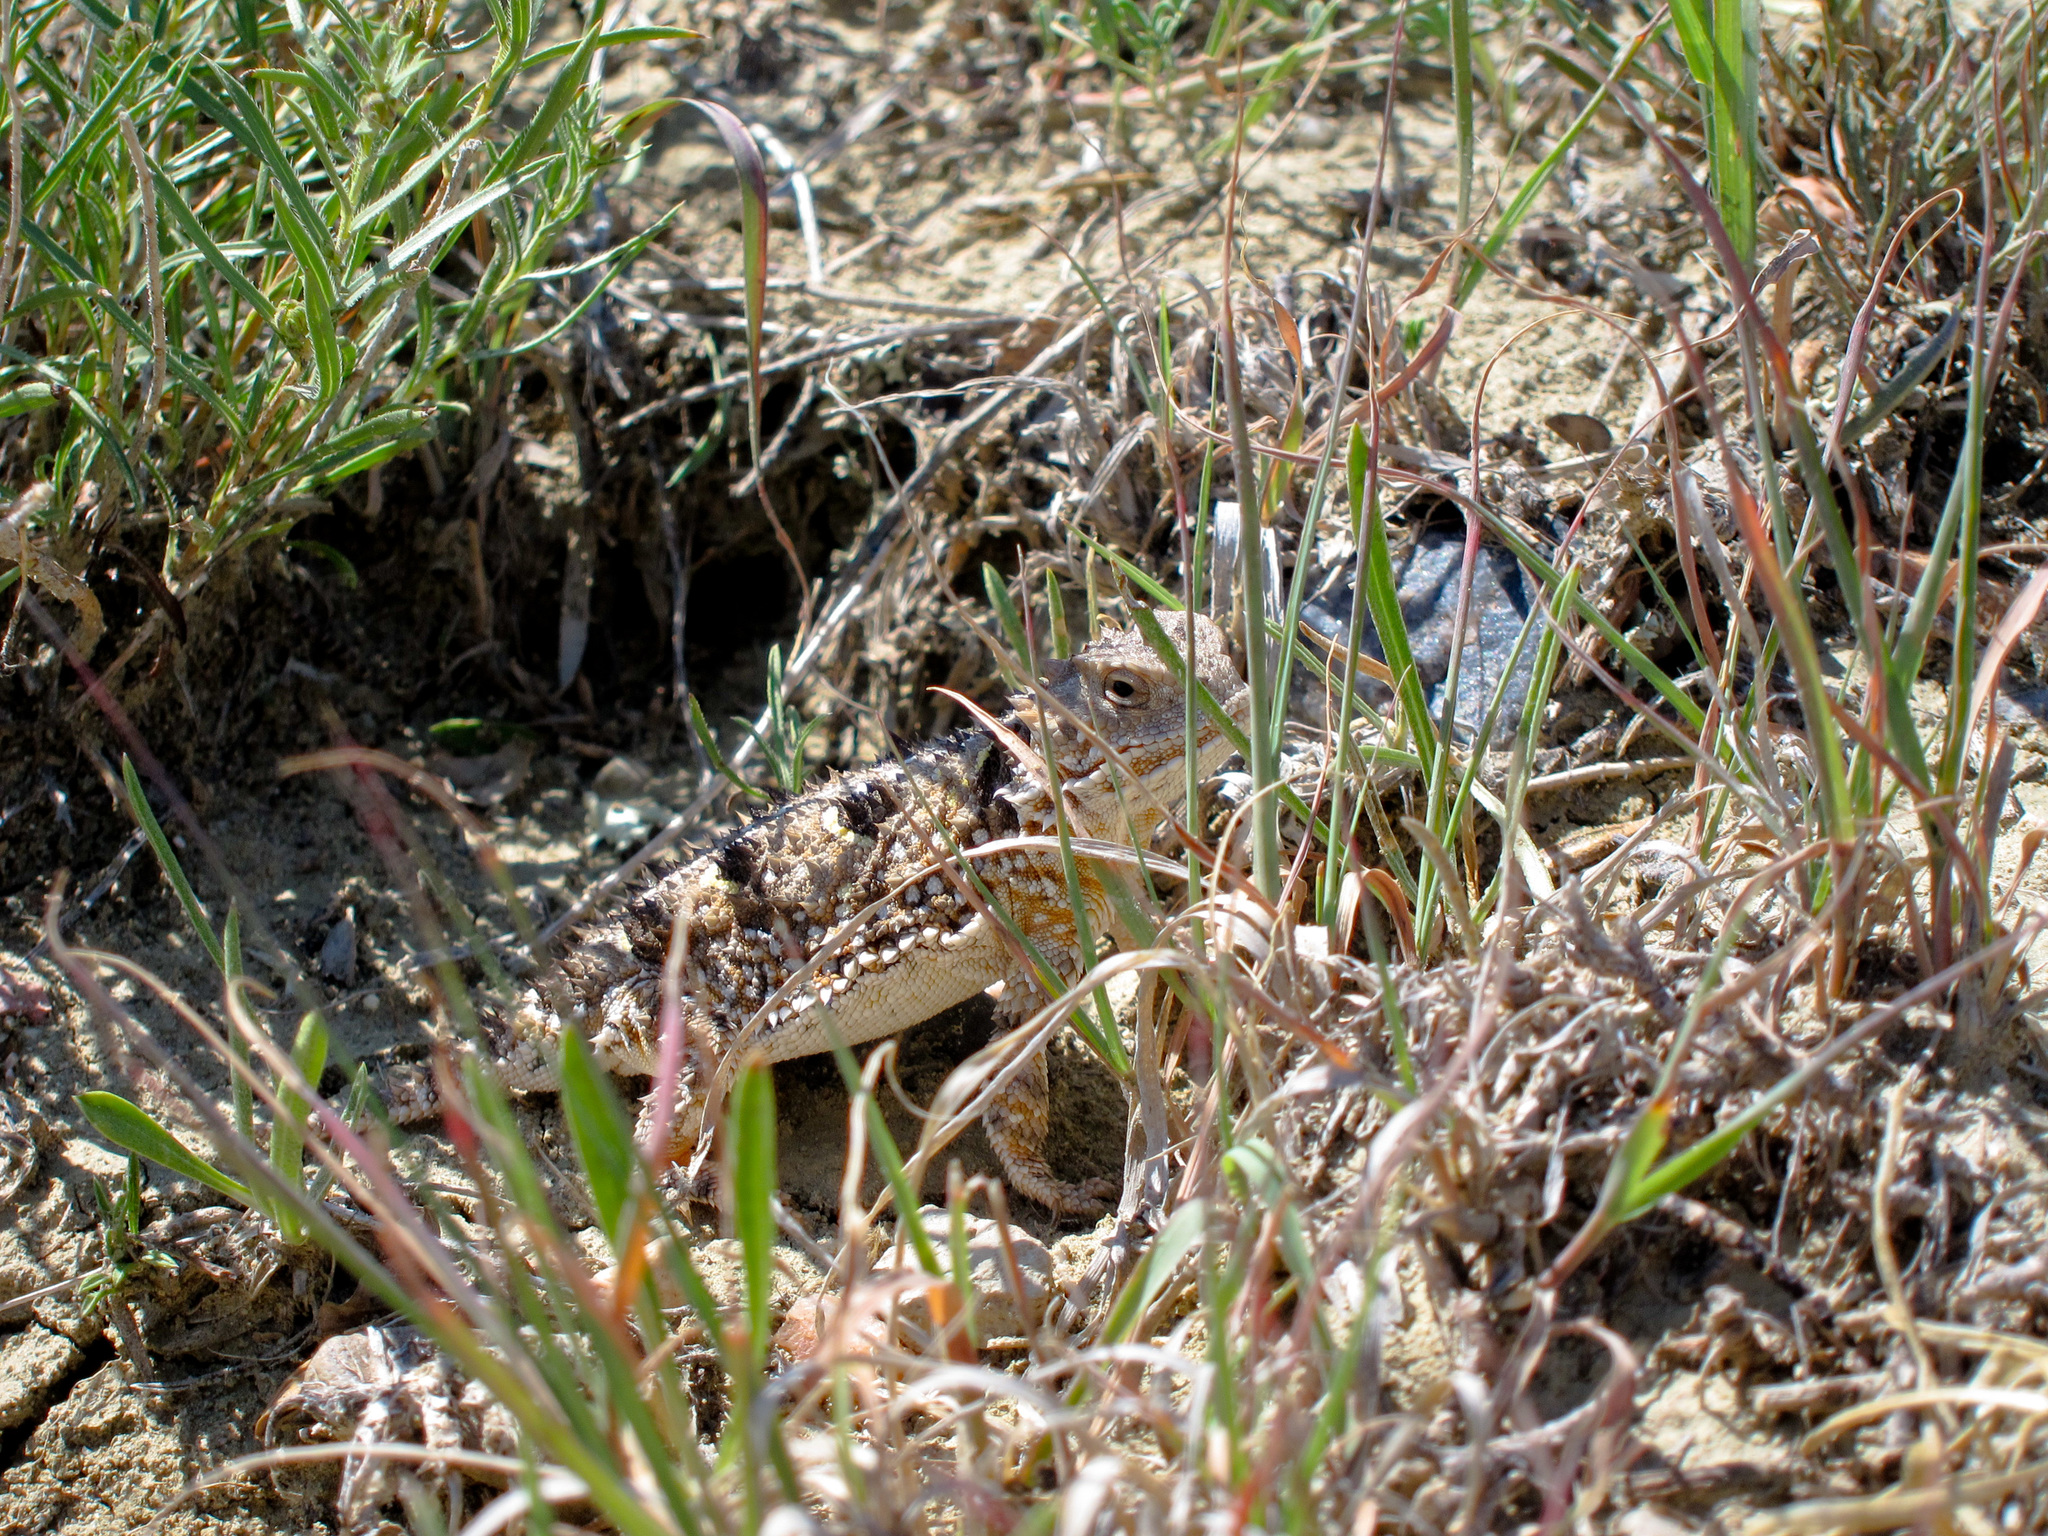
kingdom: Animalia
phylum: Chordata
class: Squamata
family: Phrynosomatidae
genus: Phrynosoma
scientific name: Phrynosoma hernandesi
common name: Greater short-horned lizard
